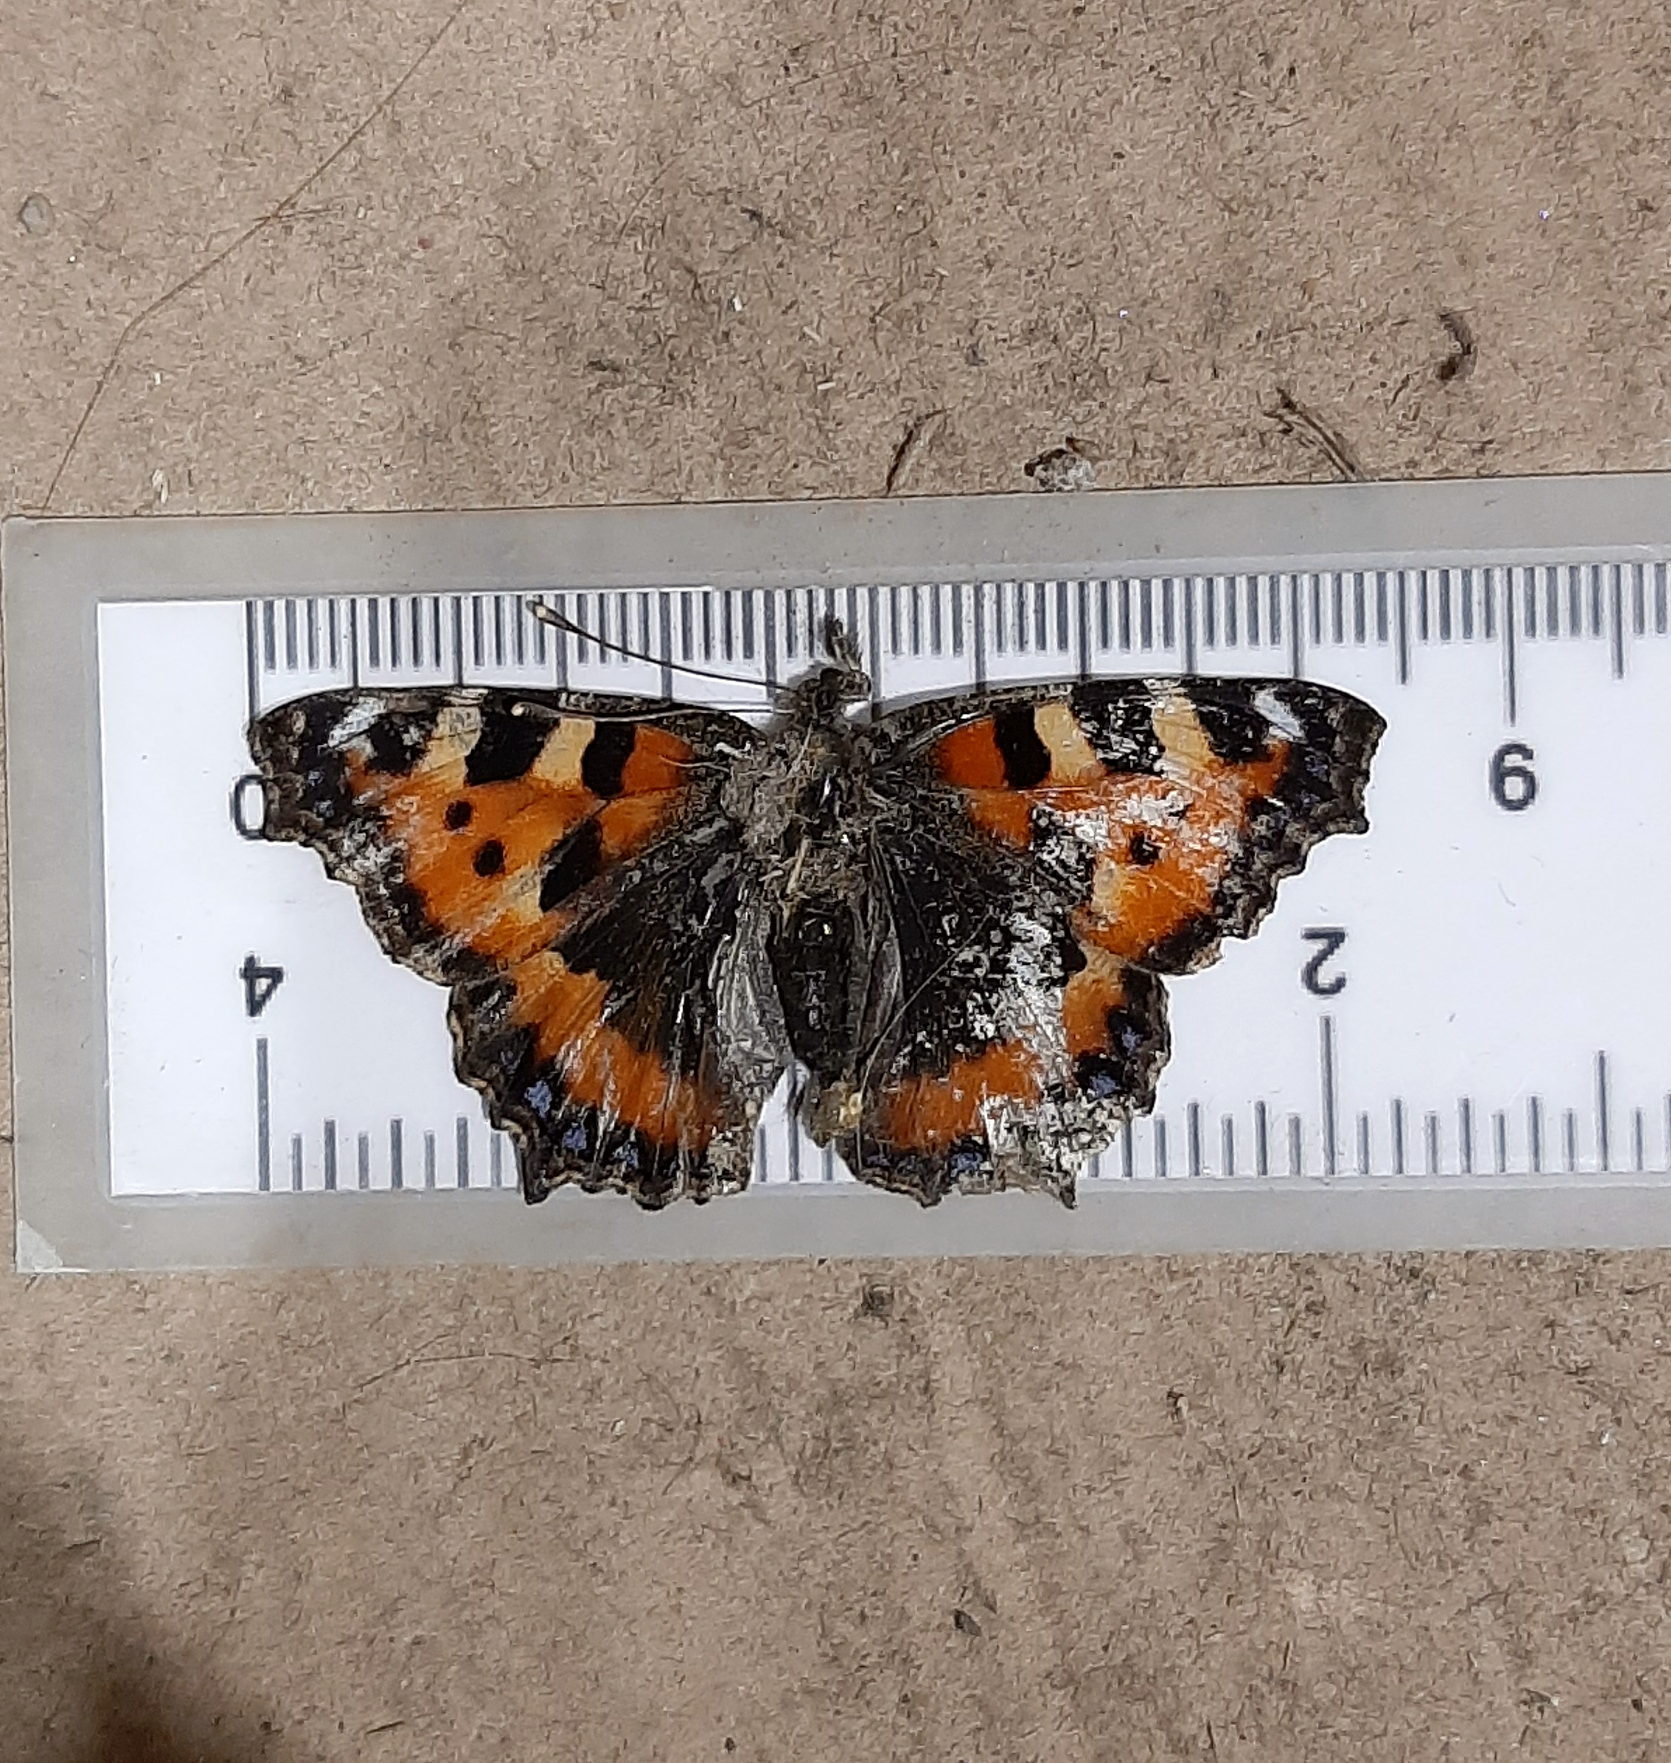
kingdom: Animalia
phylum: Arthropoda
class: Insecta
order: Lepidoptera
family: Nymphalidae
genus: Aglais
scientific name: Aglais urticae
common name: Small tortoiseshell
